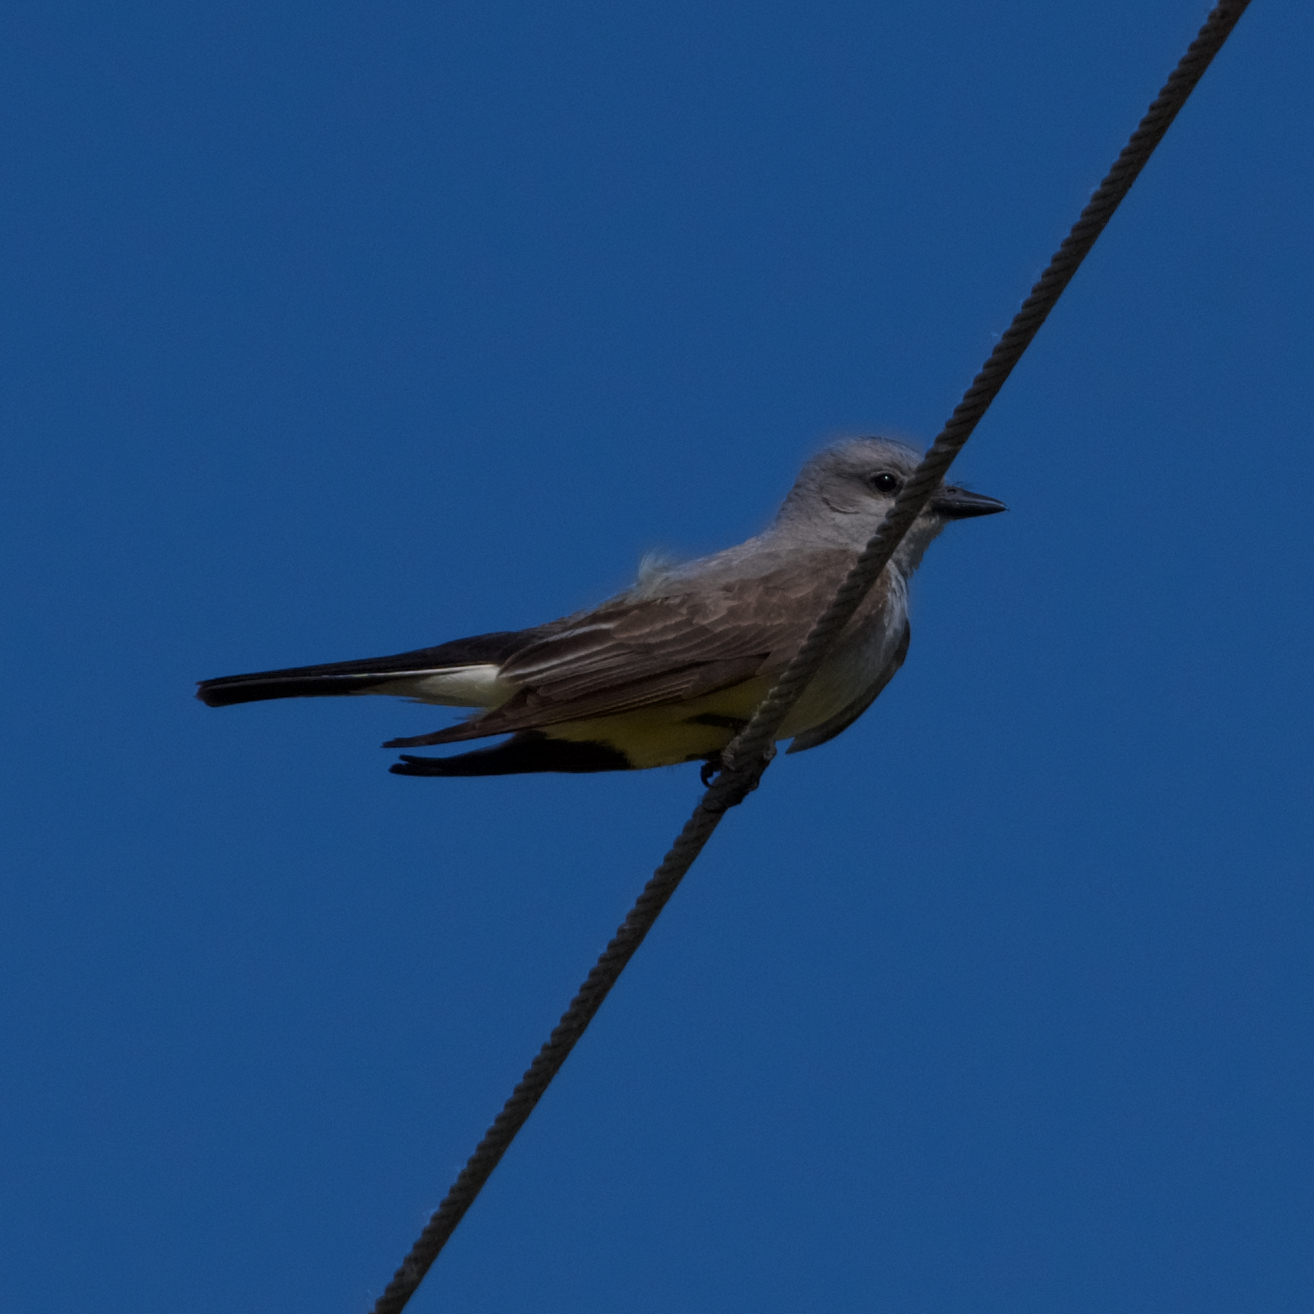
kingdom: Animalia
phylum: Chordata
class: Aves
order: Passeriformes
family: Tyrannidae
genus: Tyrannus
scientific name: Tyrannus verticalis
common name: Western kingbird
